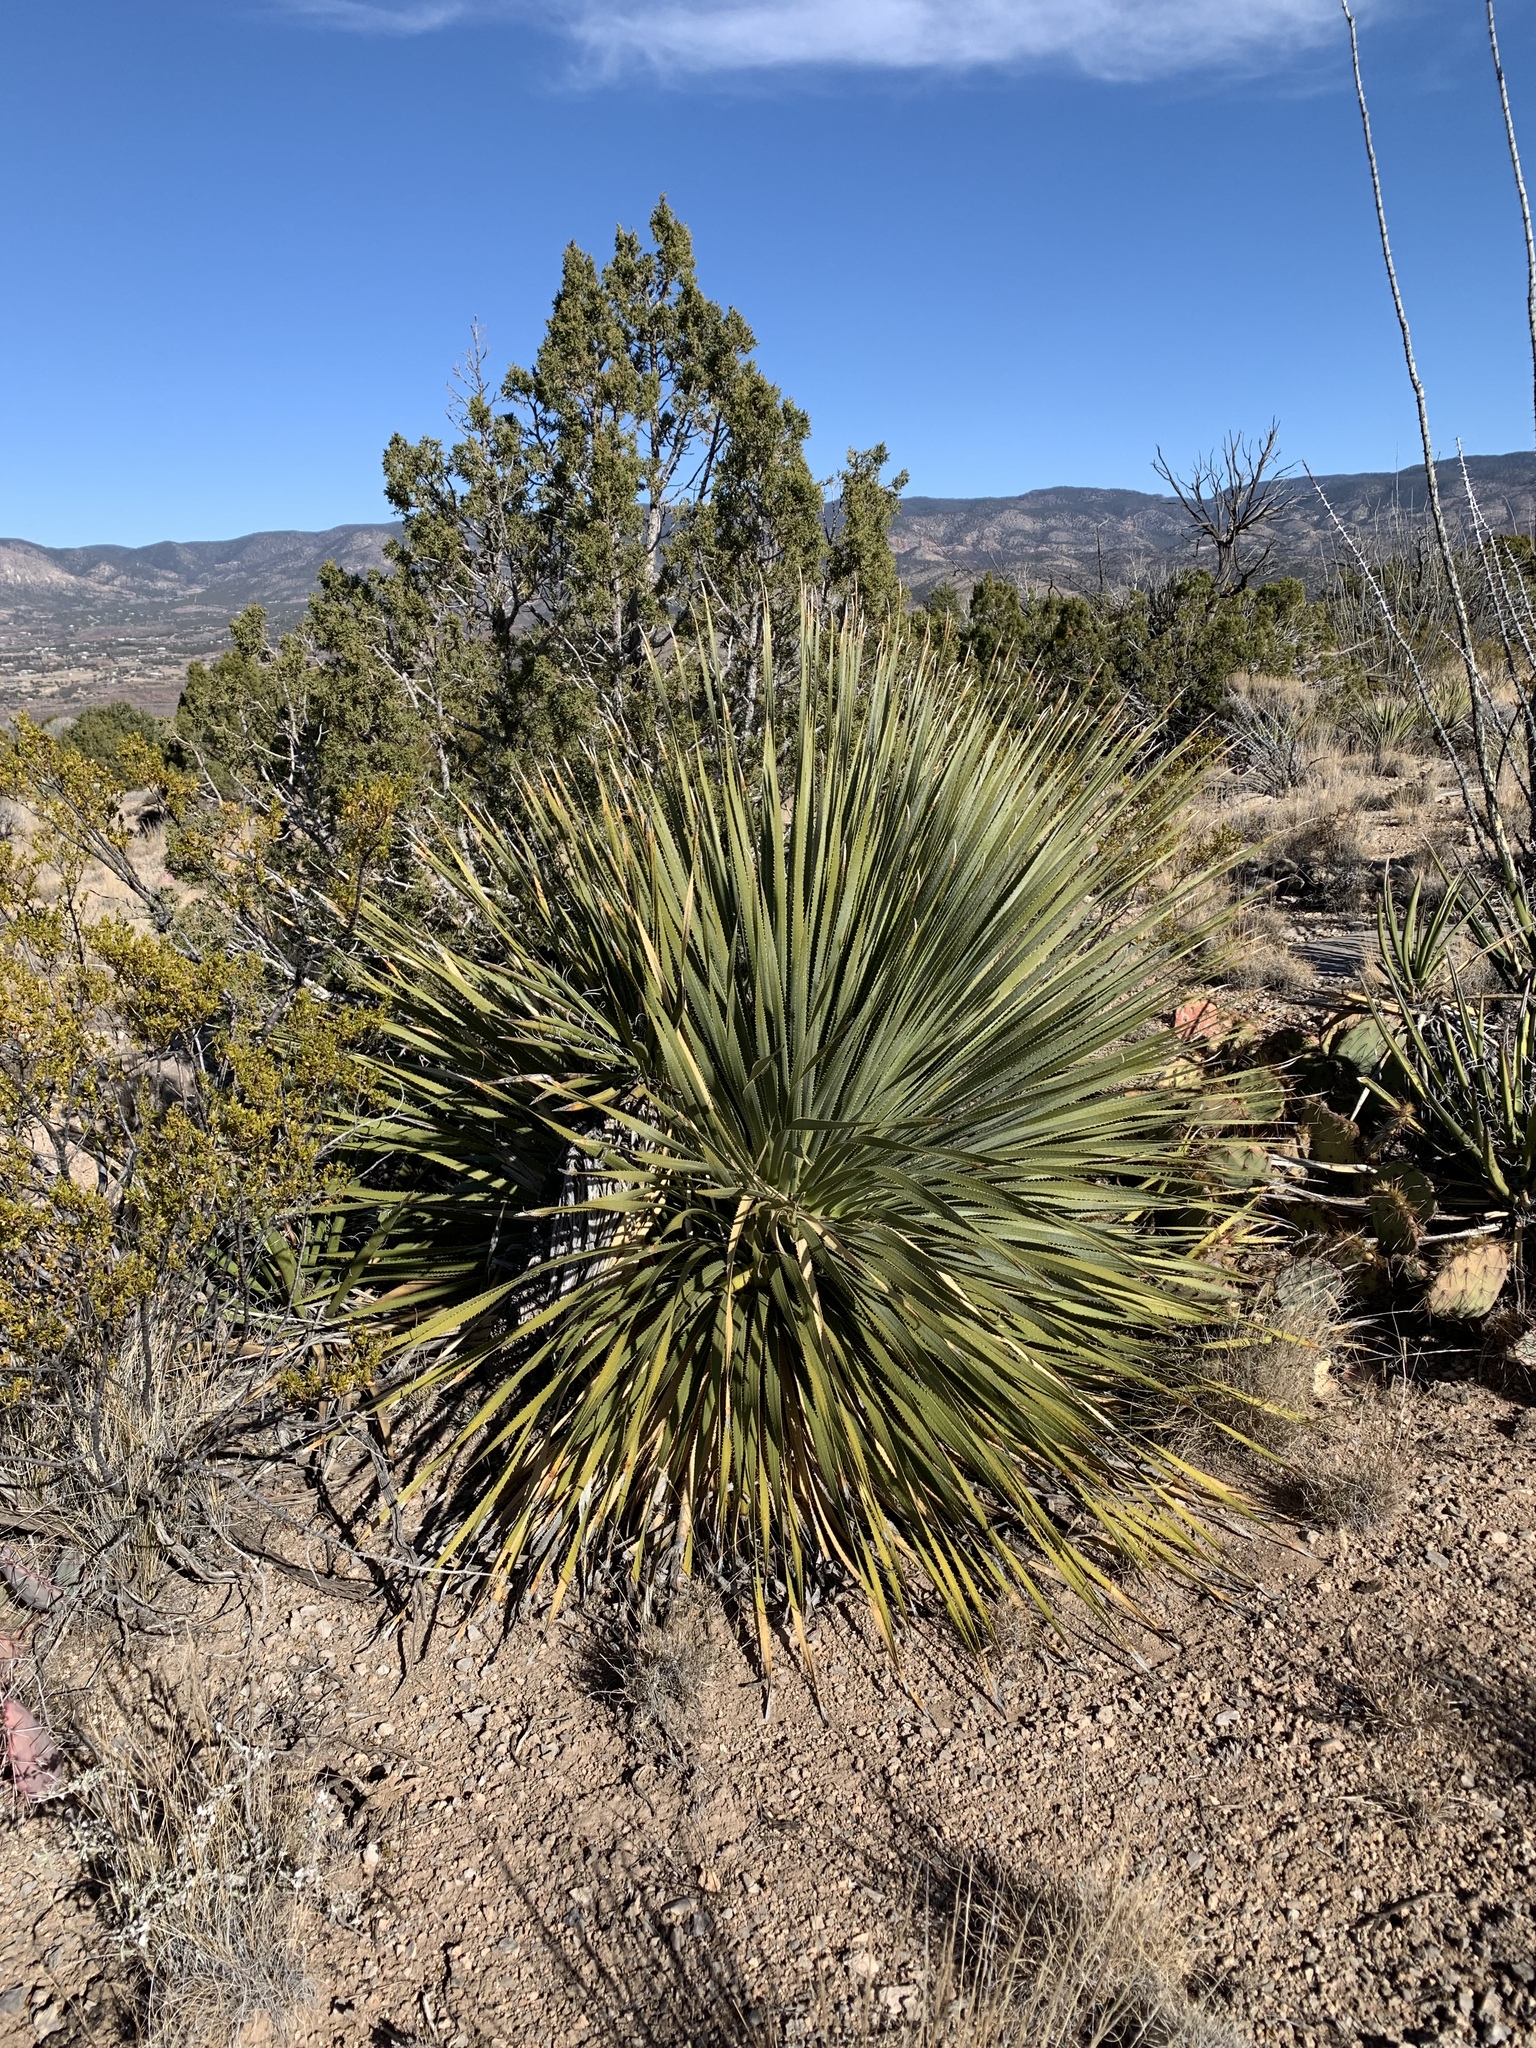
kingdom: Plantae
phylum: Tracheophyta
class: Liliopsida
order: Asparagales
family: Asparagaceae
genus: Dasylirion
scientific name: Dasylirion wheeleri
